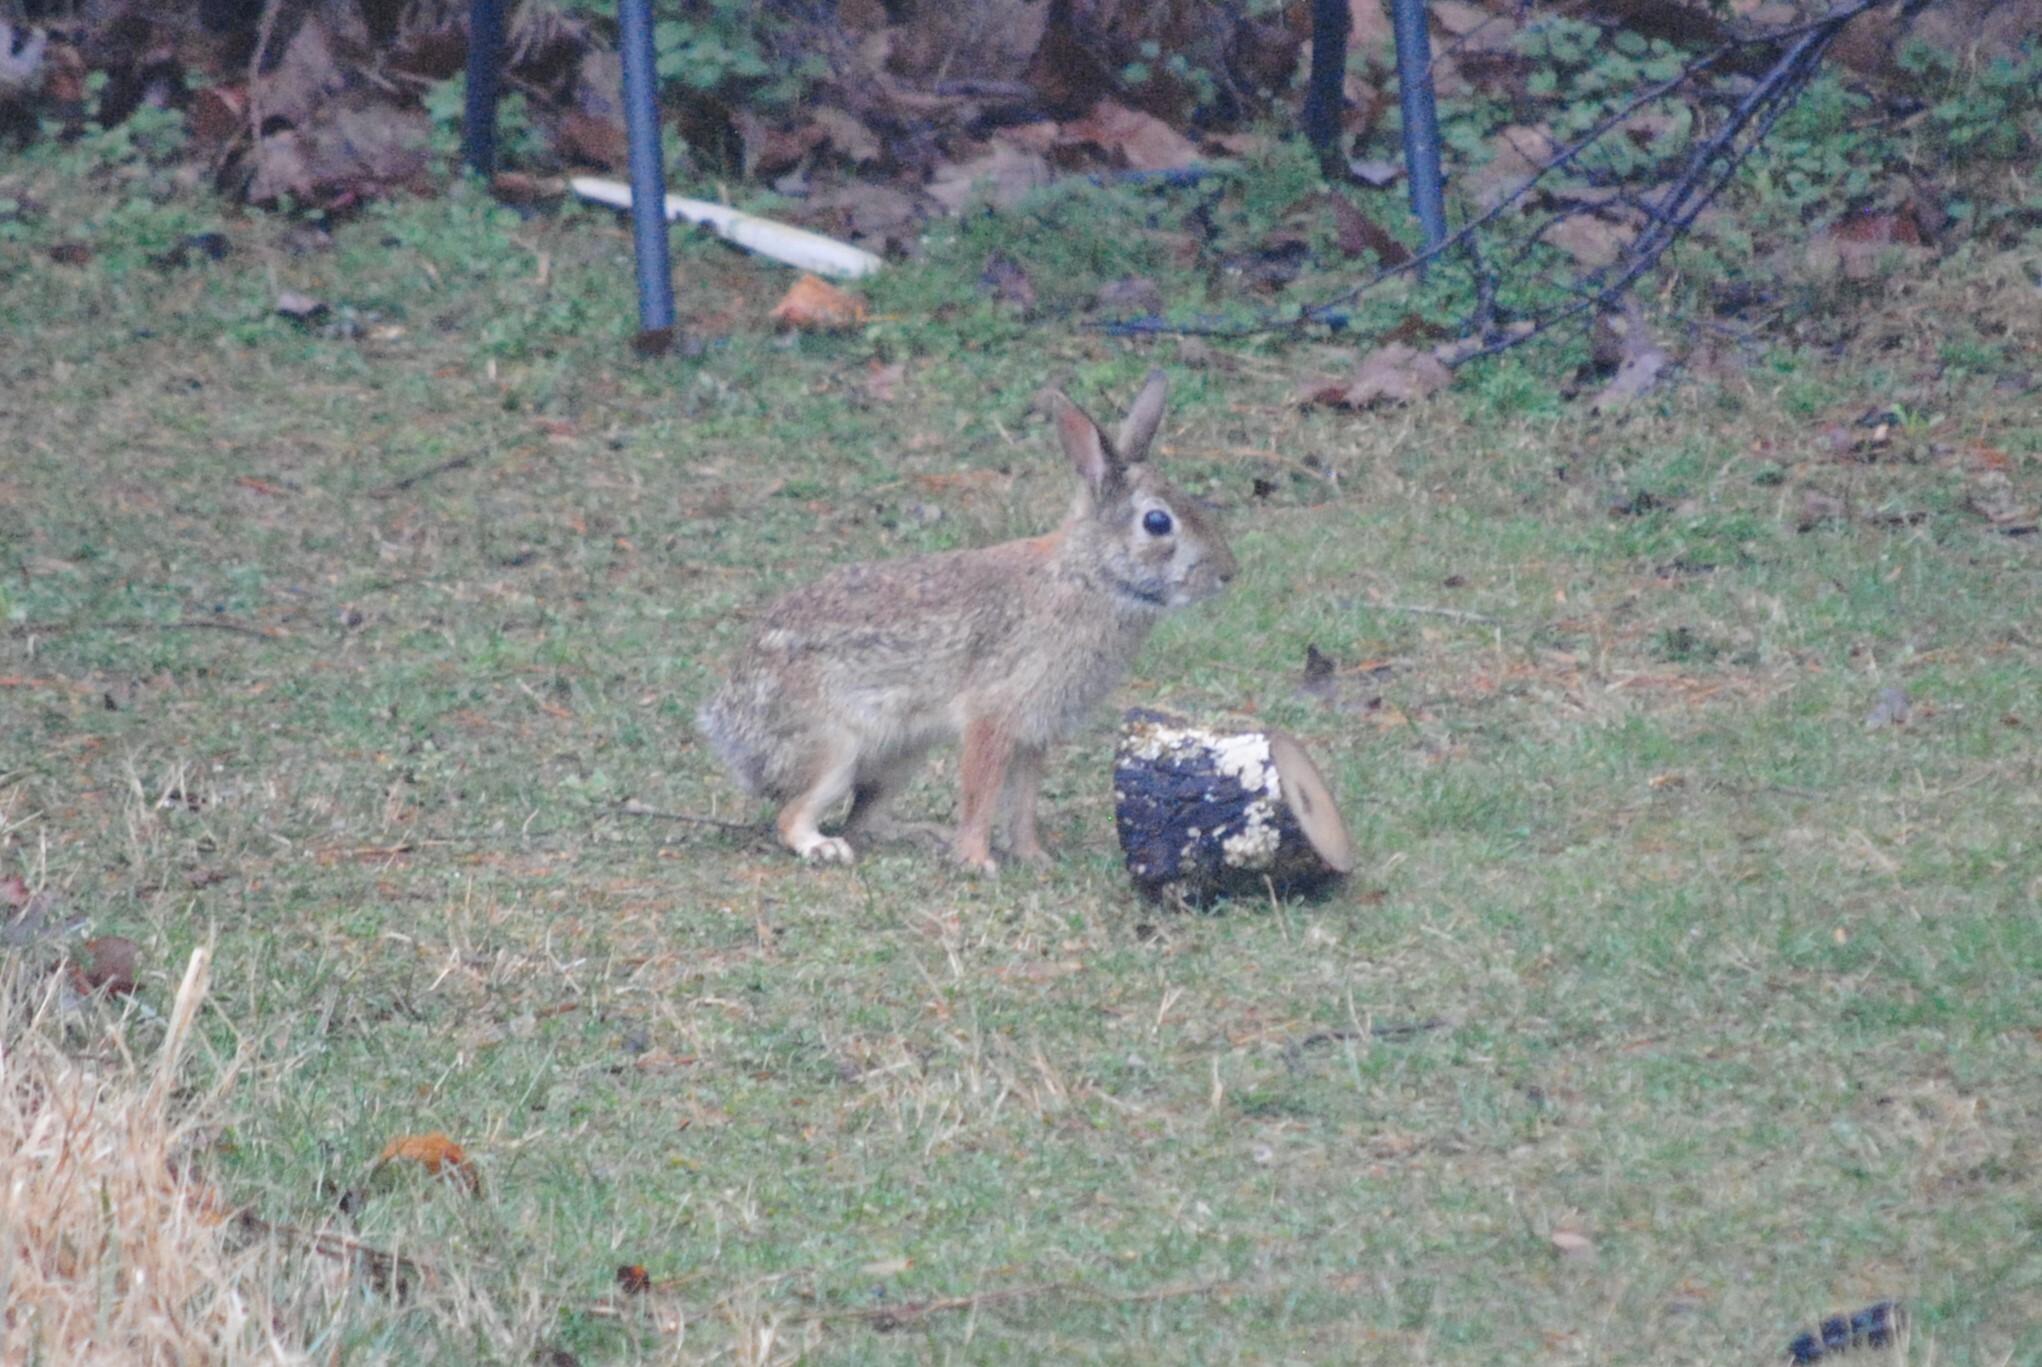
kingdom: Animalia
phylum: Chordata
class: Mammalia
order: Lagomorpha
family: Leporidae
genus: Sylvilagus
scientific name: Sylvilagus floridanus
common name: Eastern cottontail
